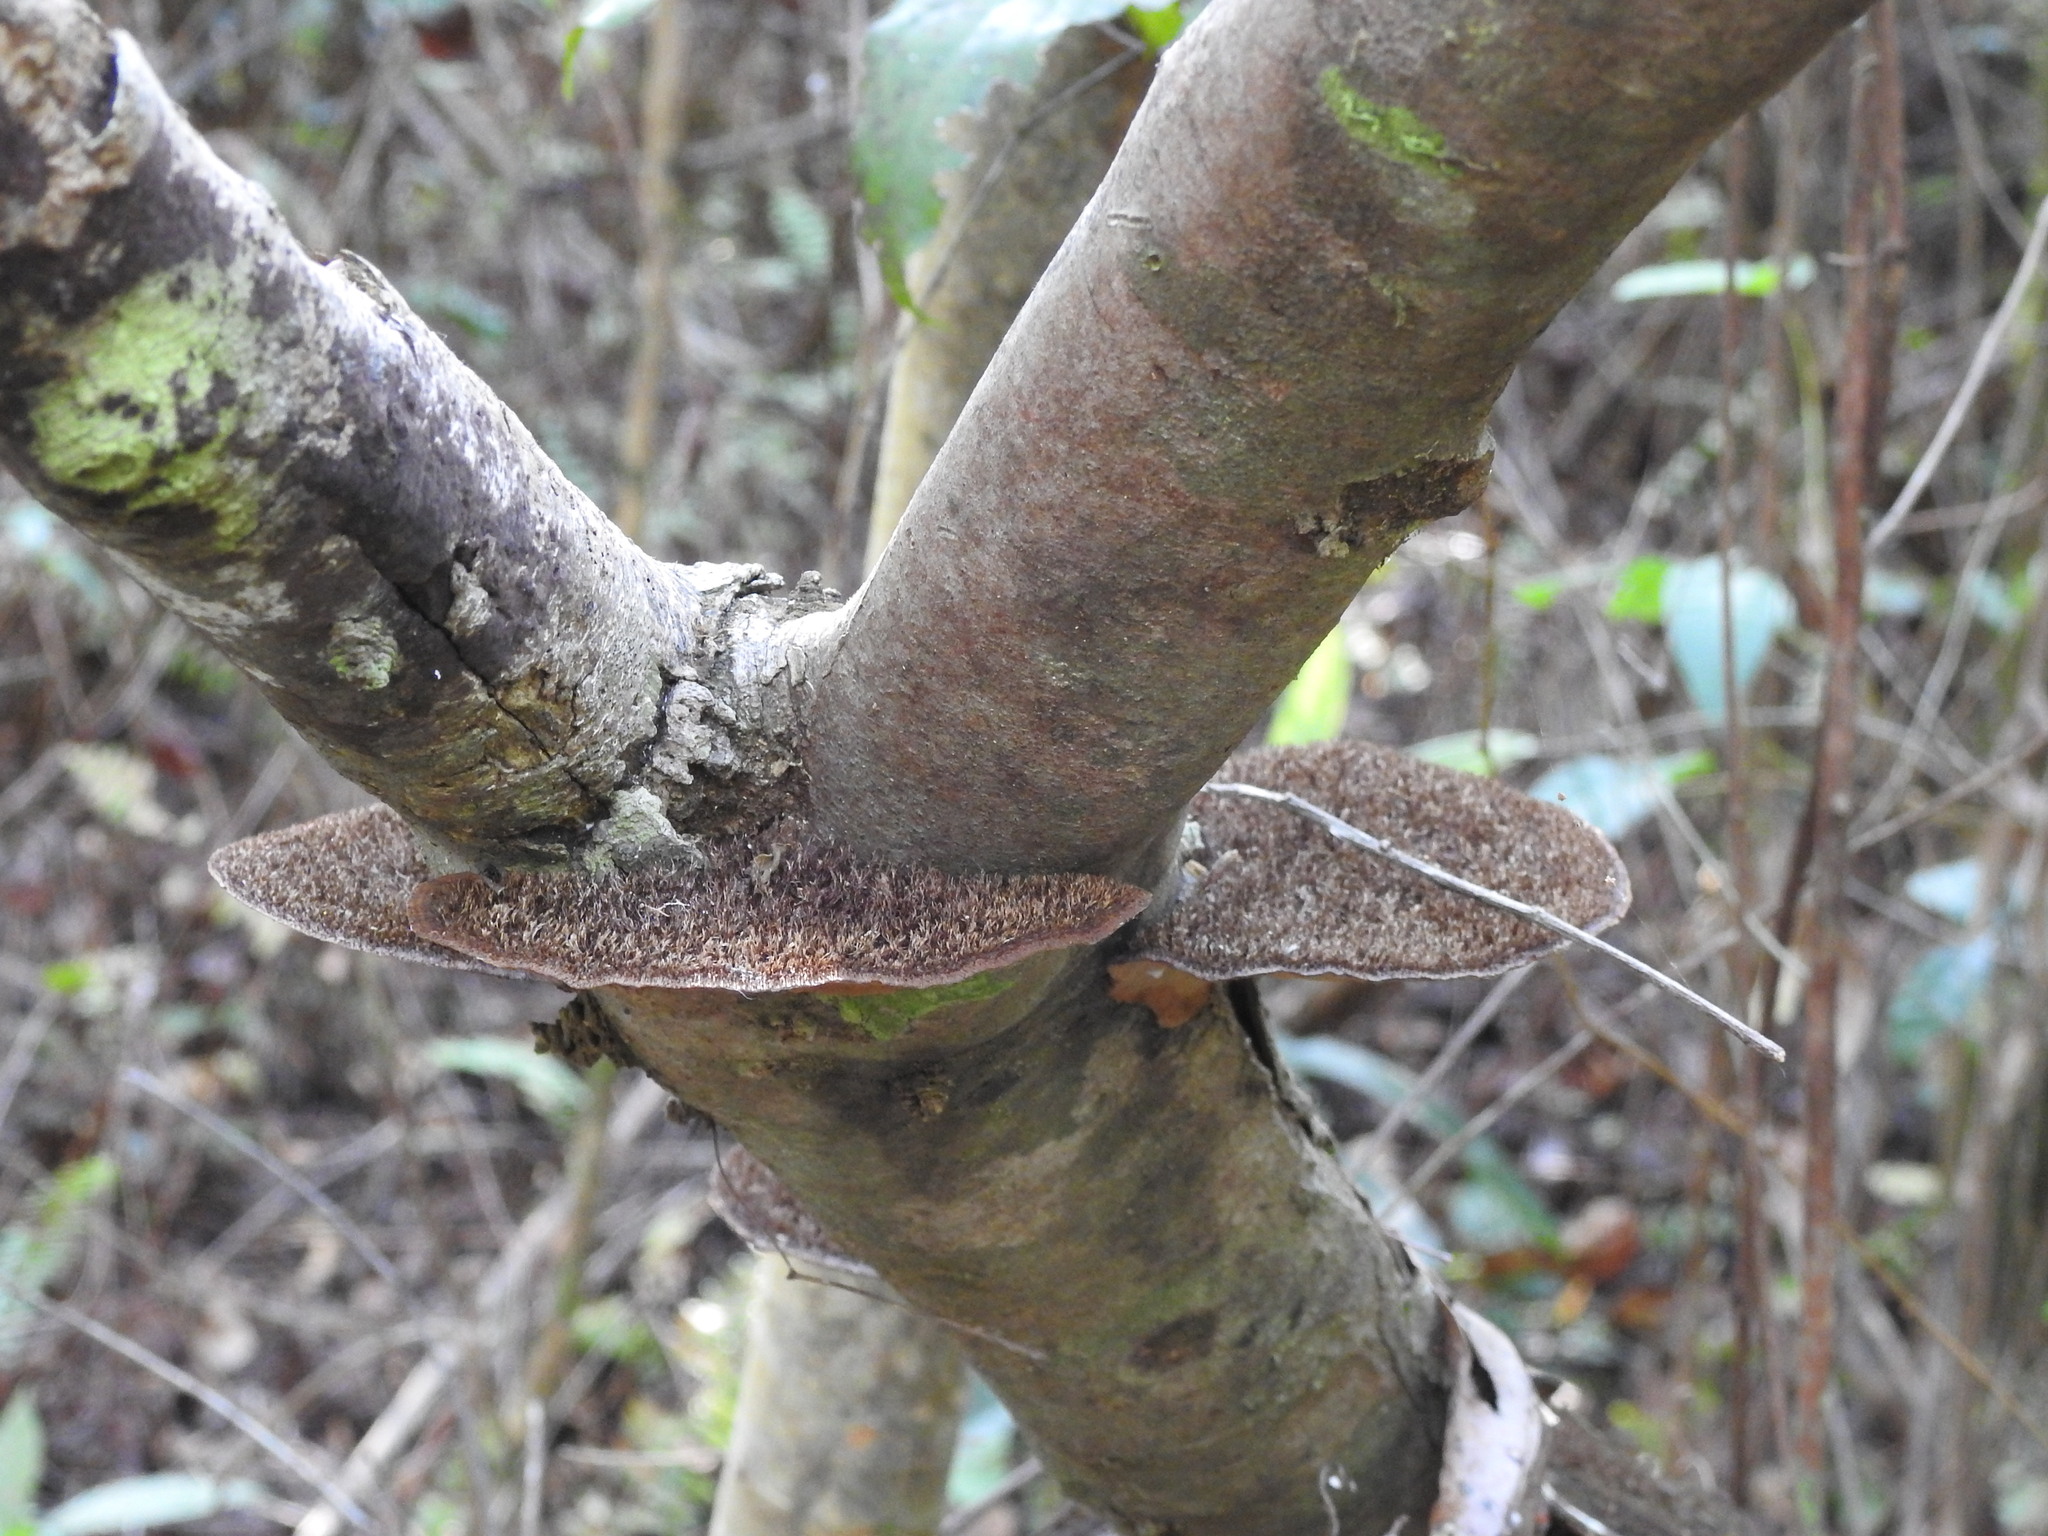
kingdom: Fungi
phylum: Basidiomycota
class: Agaricomycetes
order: Polyporales
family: Cerrenaceae
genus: Cerrena
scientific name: Cerrena hydnoides
